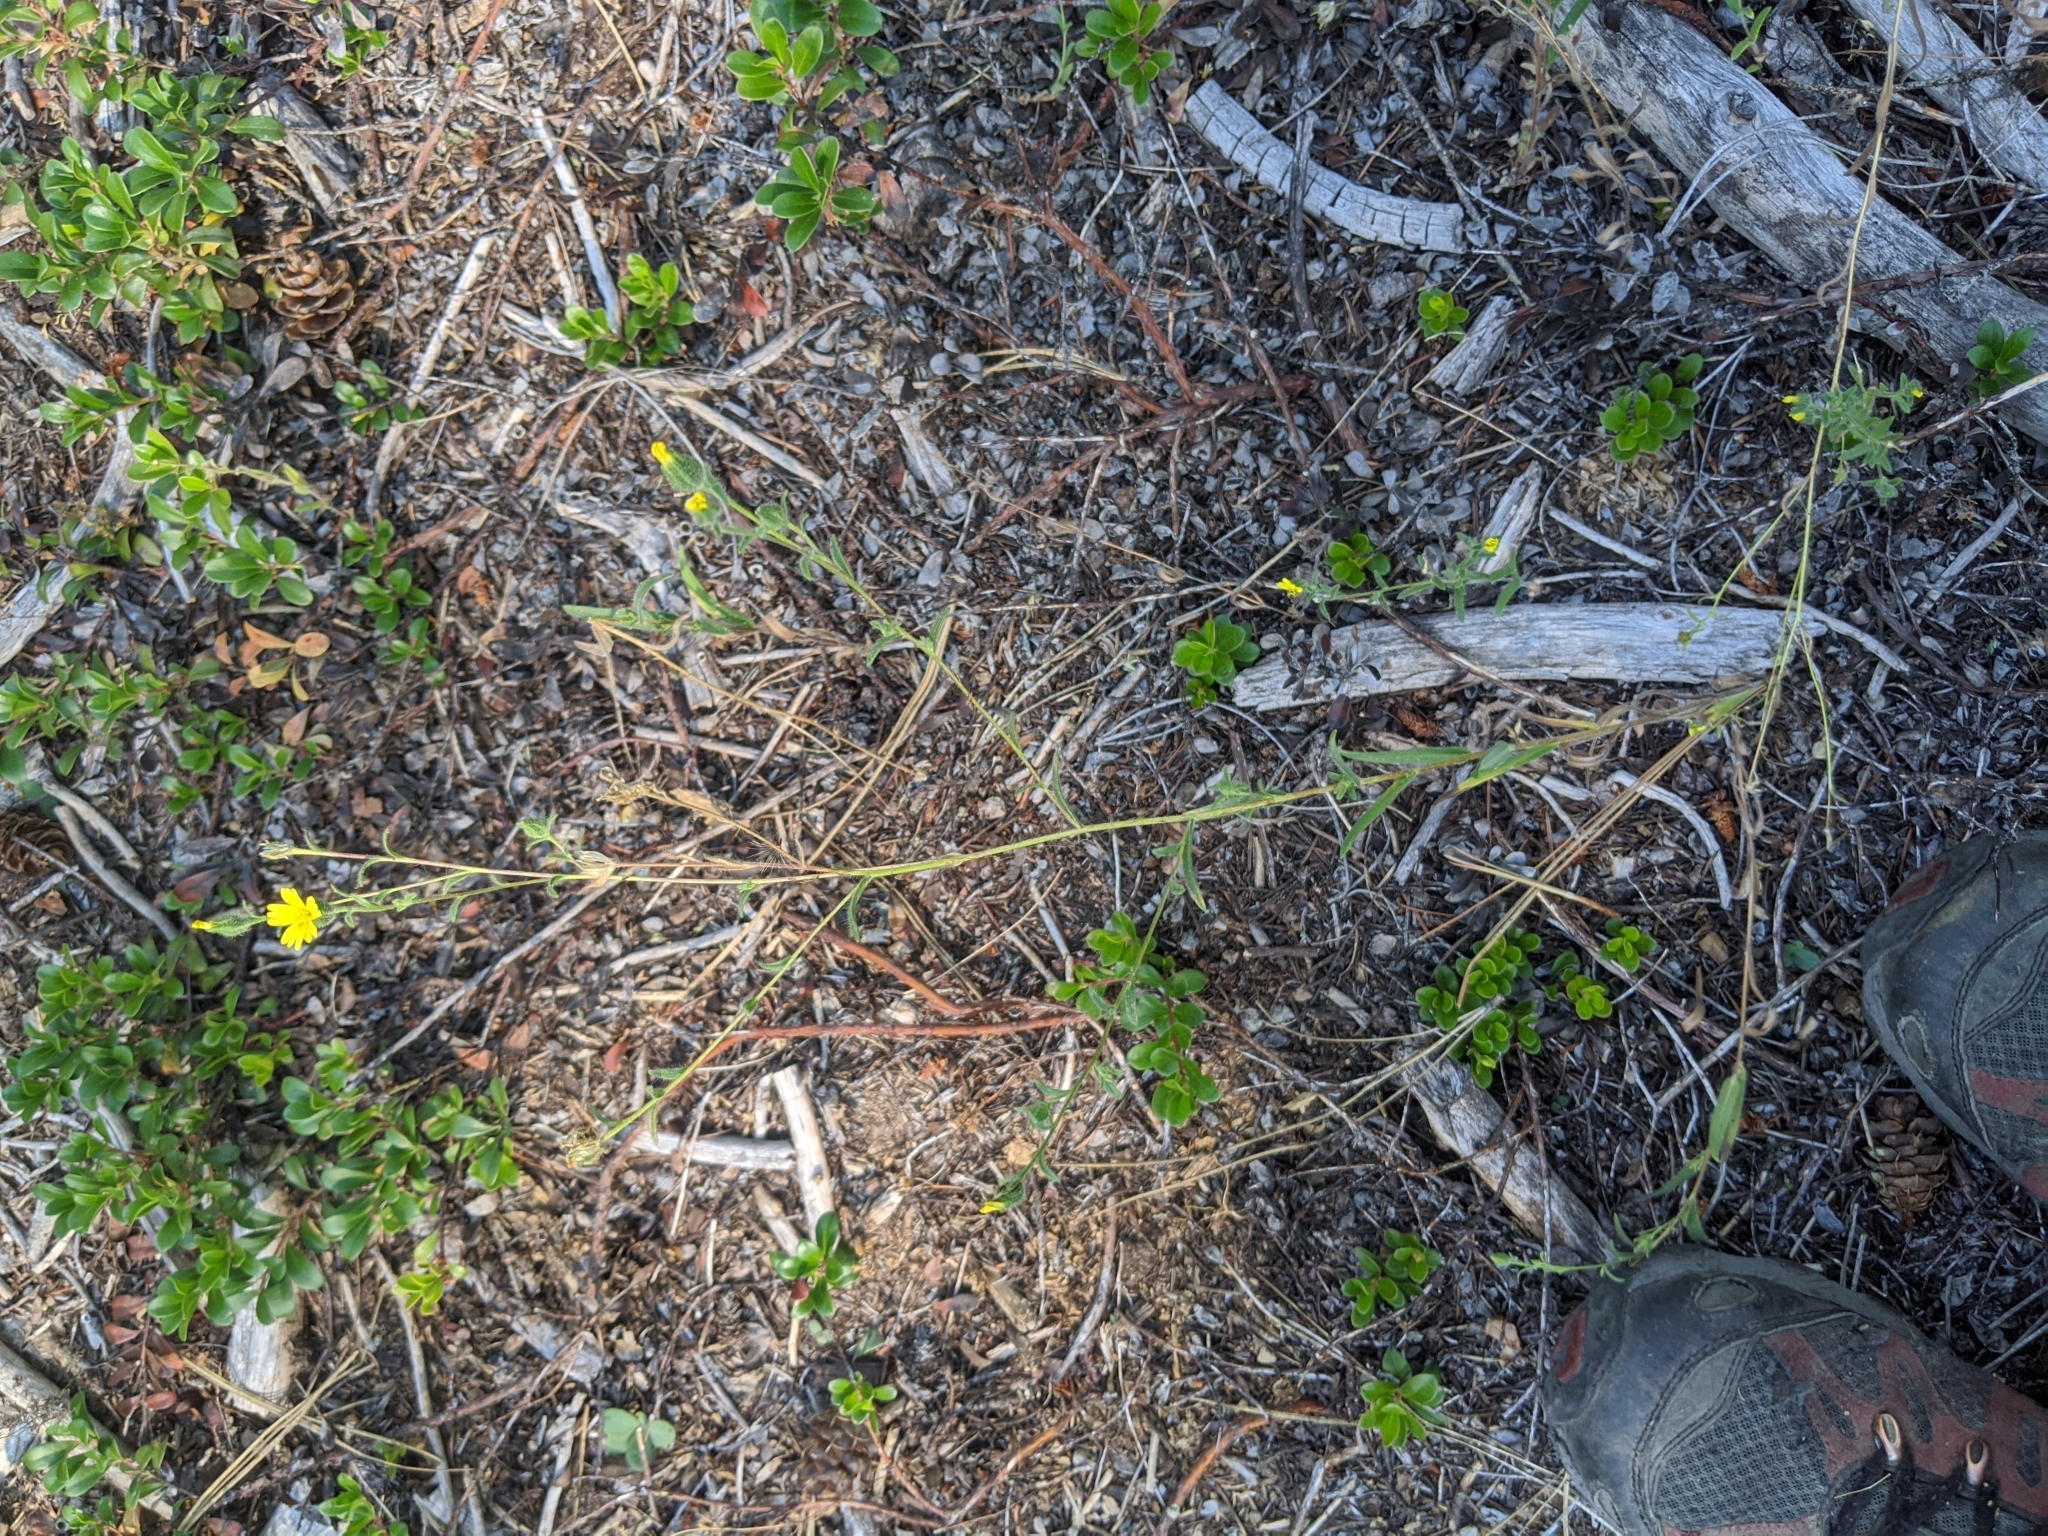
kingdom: Plantae
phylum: Tracheophyta
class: Magnoliopsida
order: Asterales
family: Asteraceae
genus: Madia
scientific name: Madia gracilis
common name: Grassy tarweed
